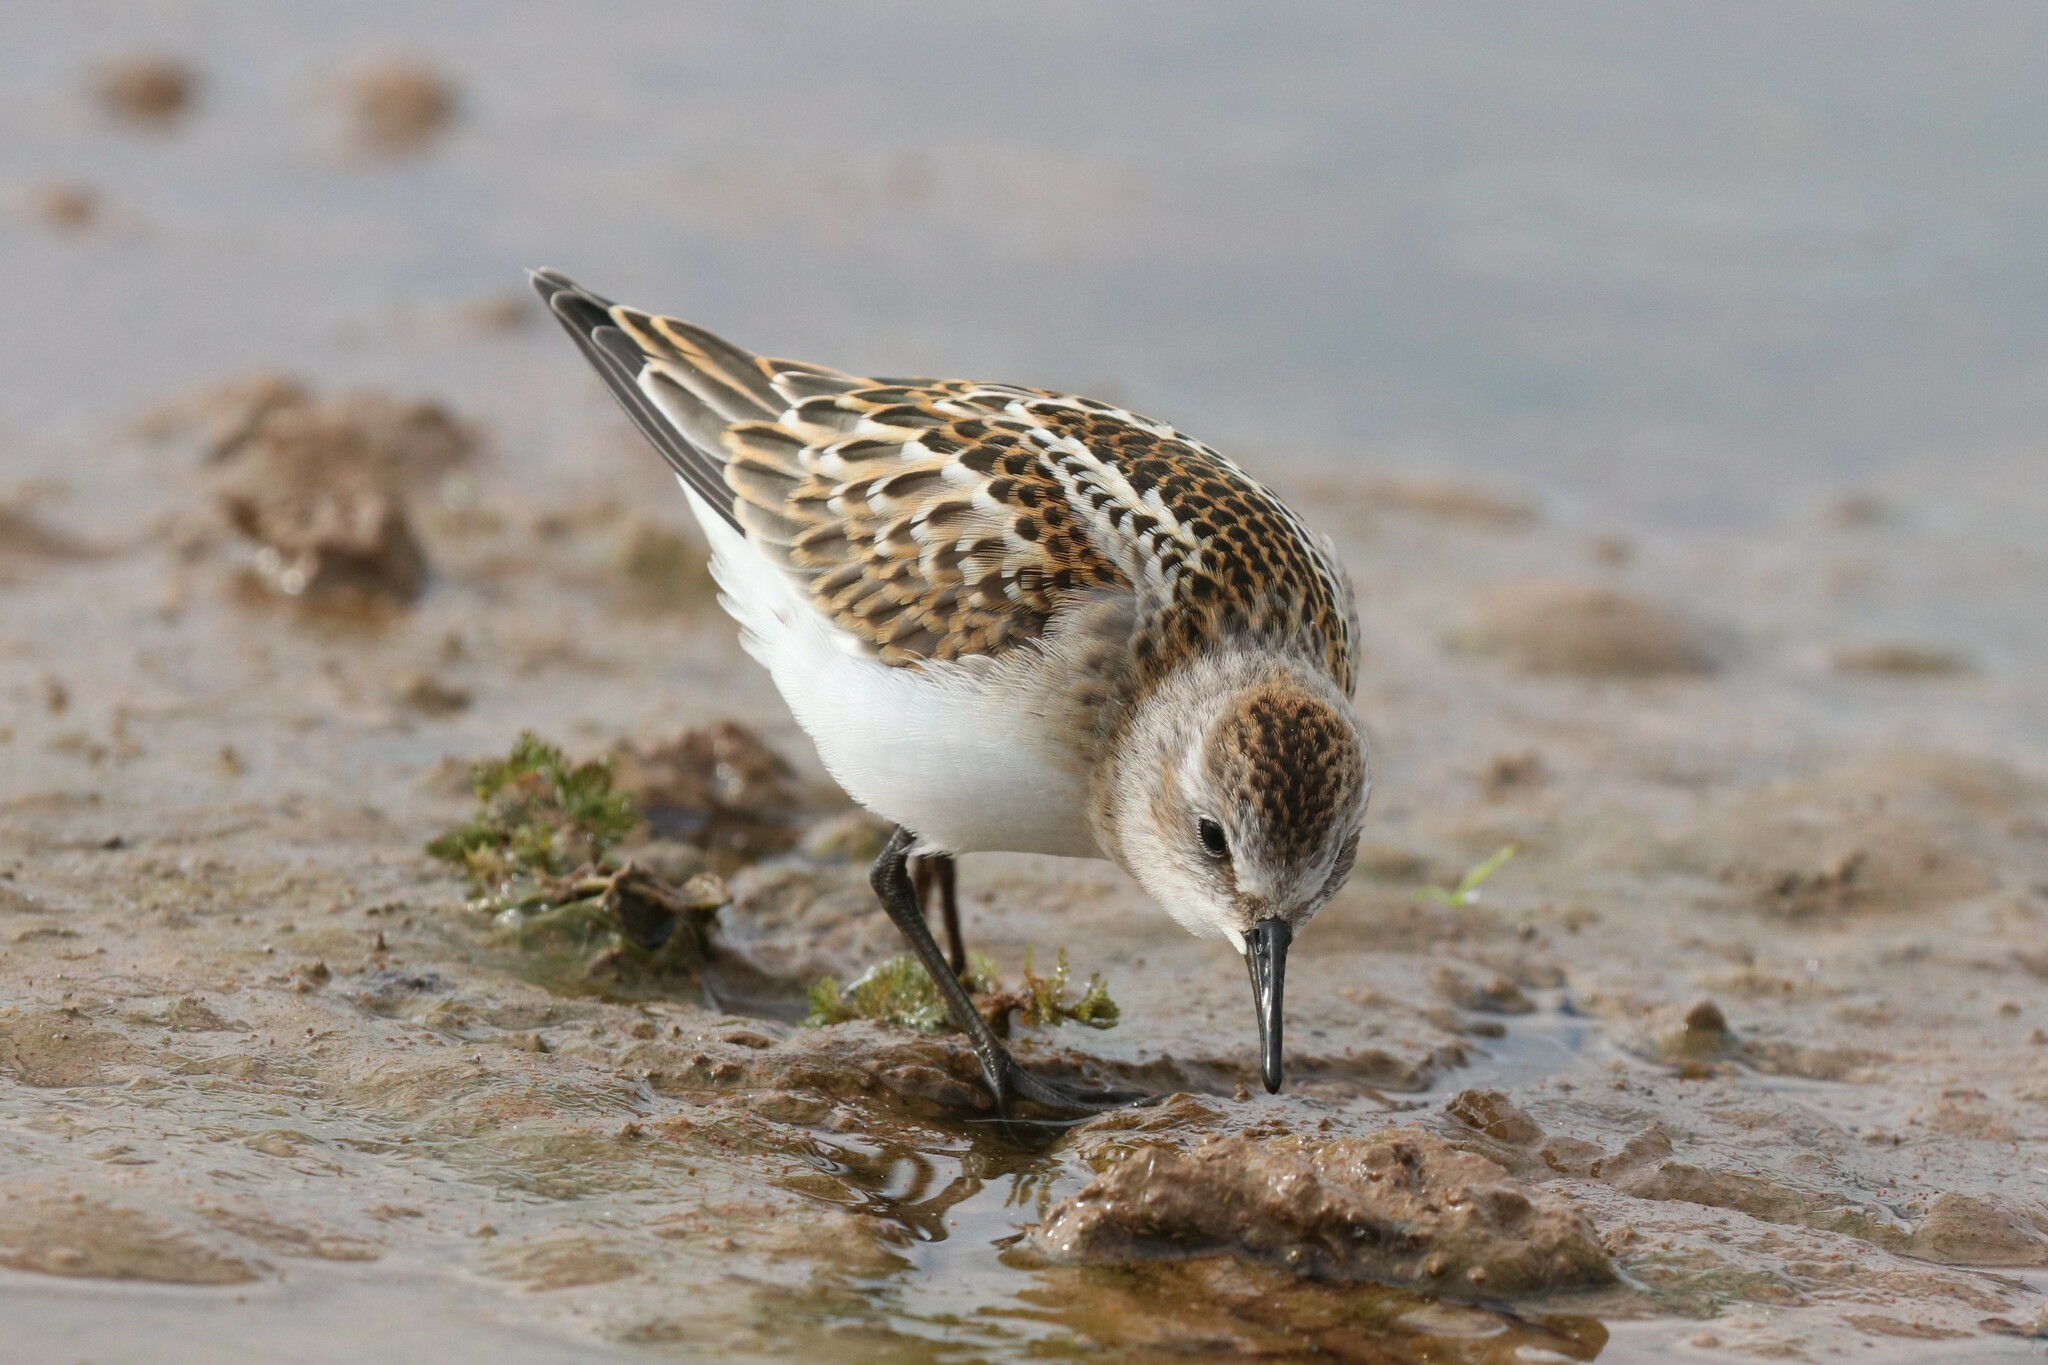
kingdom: Animalia
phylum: Chordata
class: Aves
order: Charadriiformes
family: Scolopacidae
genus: Calidris
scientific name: Calidris minuta
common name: Little stint
